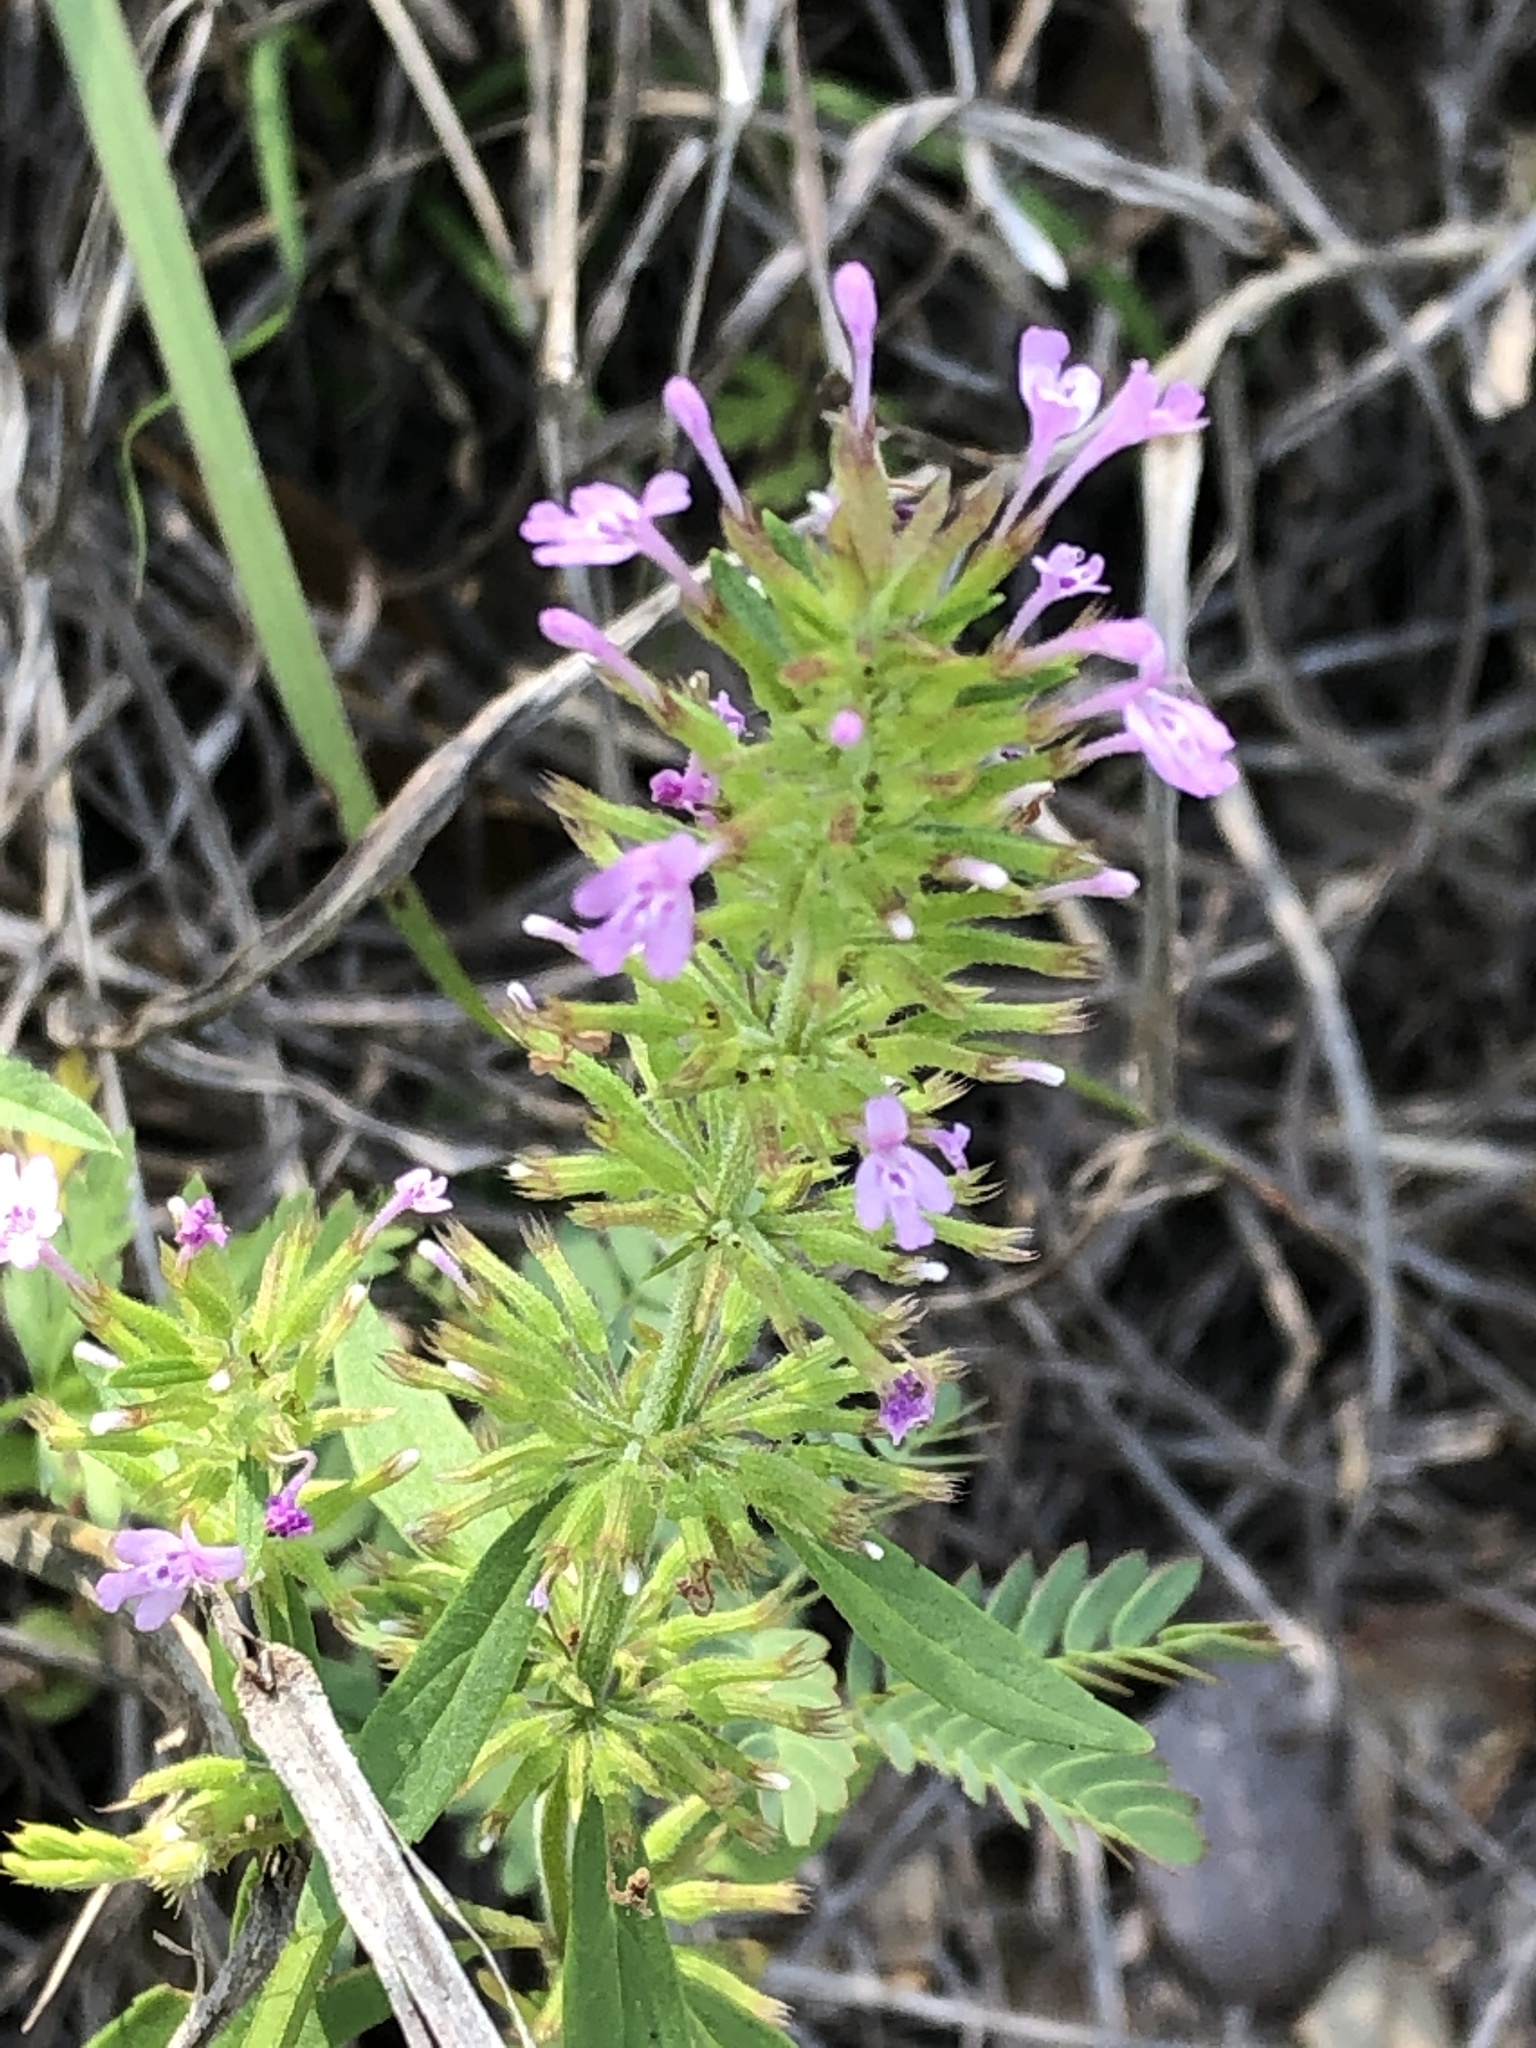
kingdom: Plantae
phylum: Tracheophyta
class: Magnoliopsida
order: Lamiales
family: Lamiaceae
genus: Hedeoma
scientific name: Hedeoma acinoides
